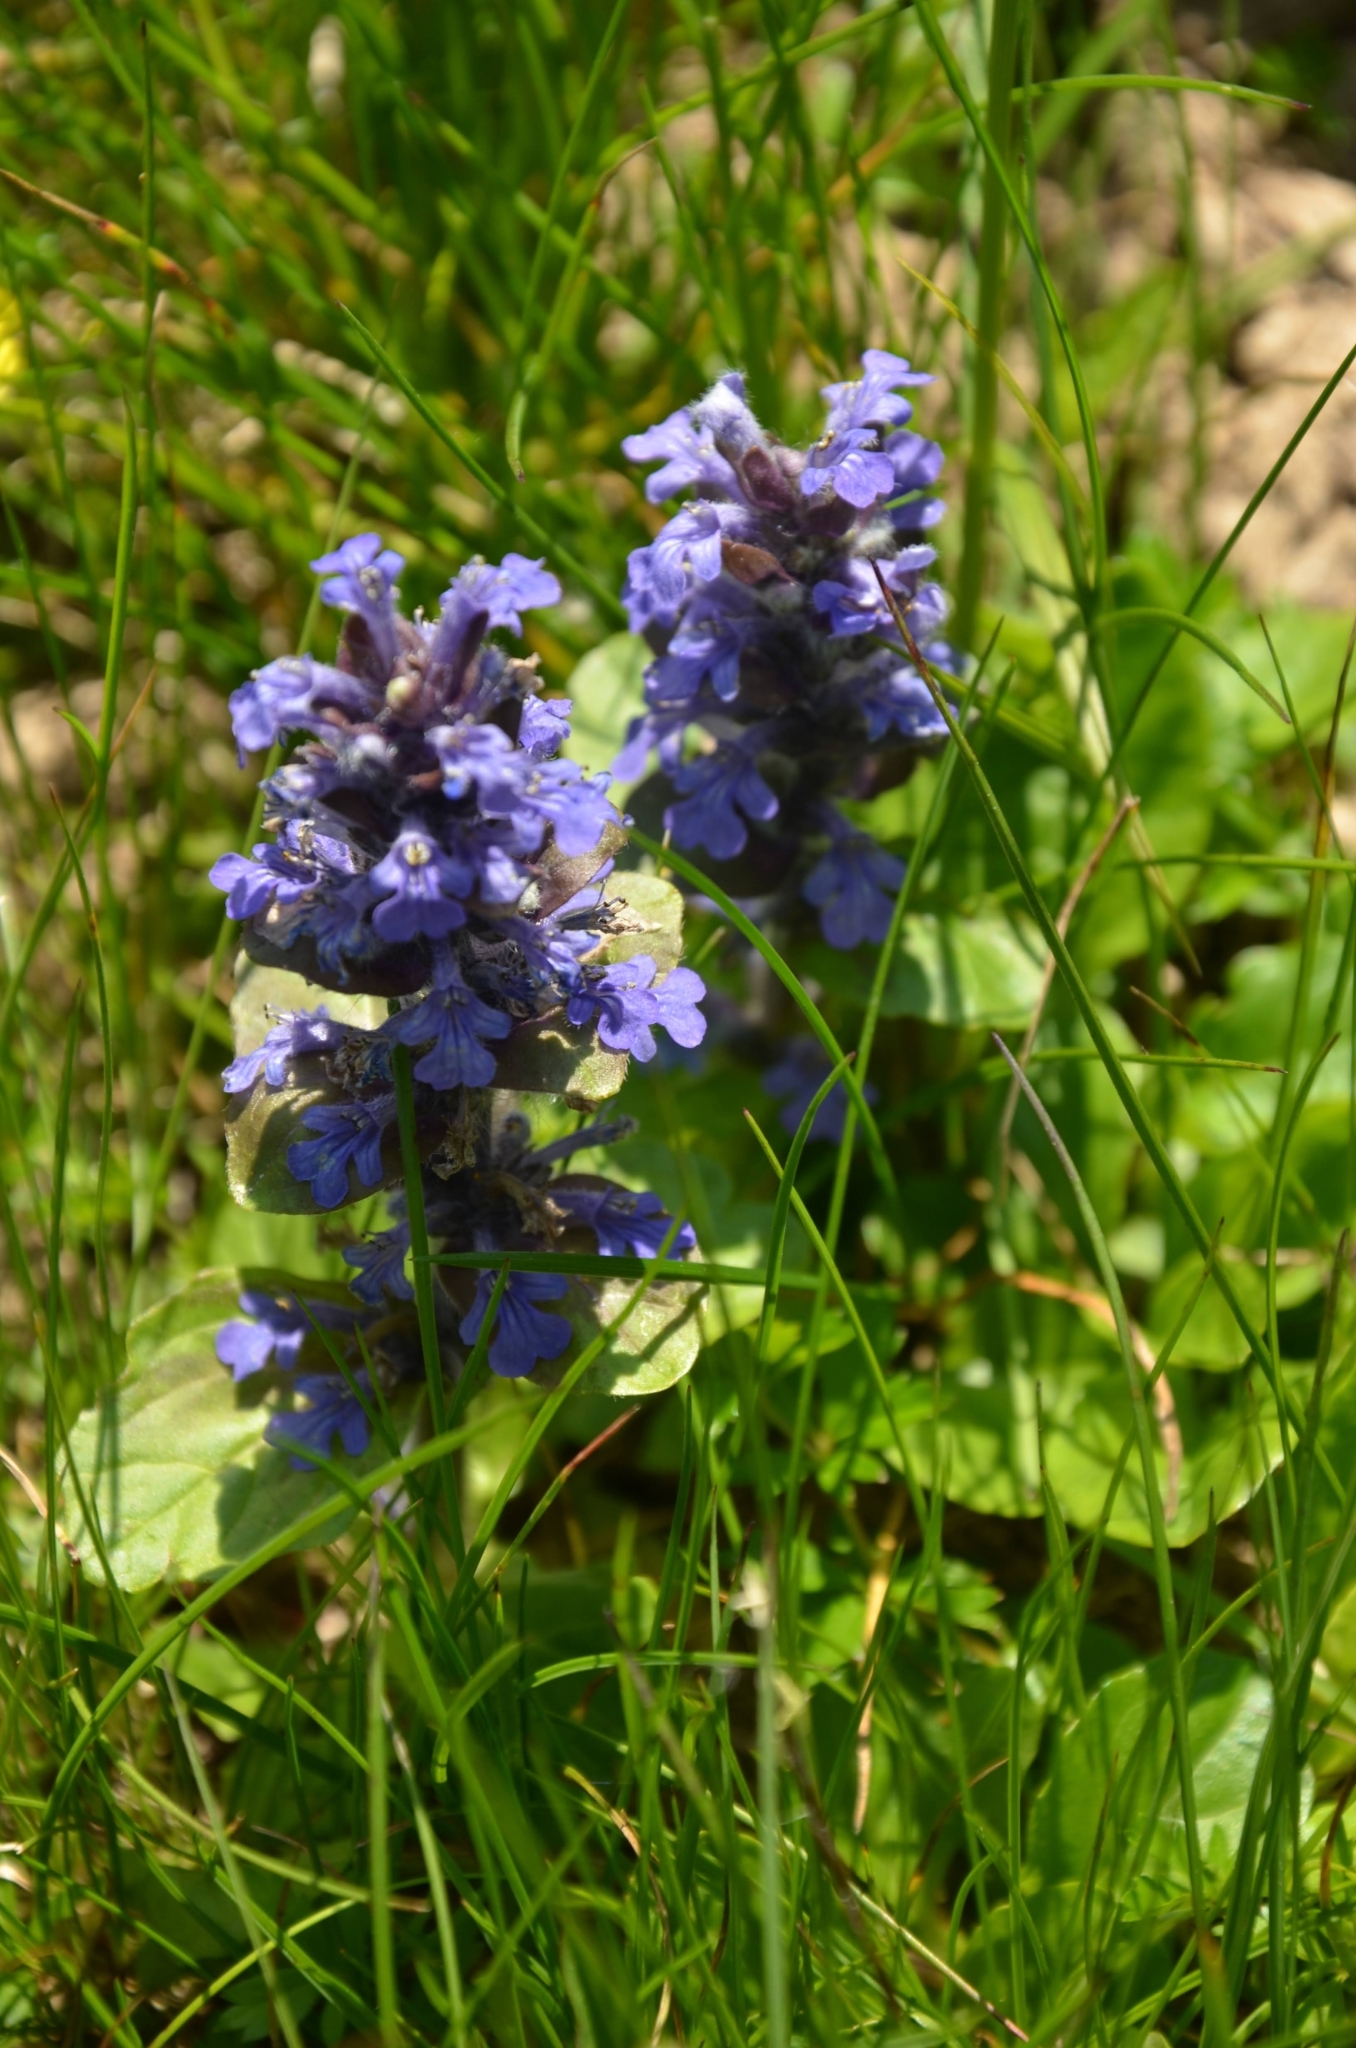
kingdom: Plantae
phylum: Tracheophyta
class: Magnoliopsida
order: Lamiales
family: Lamiaceae
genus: Ajuga
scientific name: Ajuga reptans
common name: Bugle
